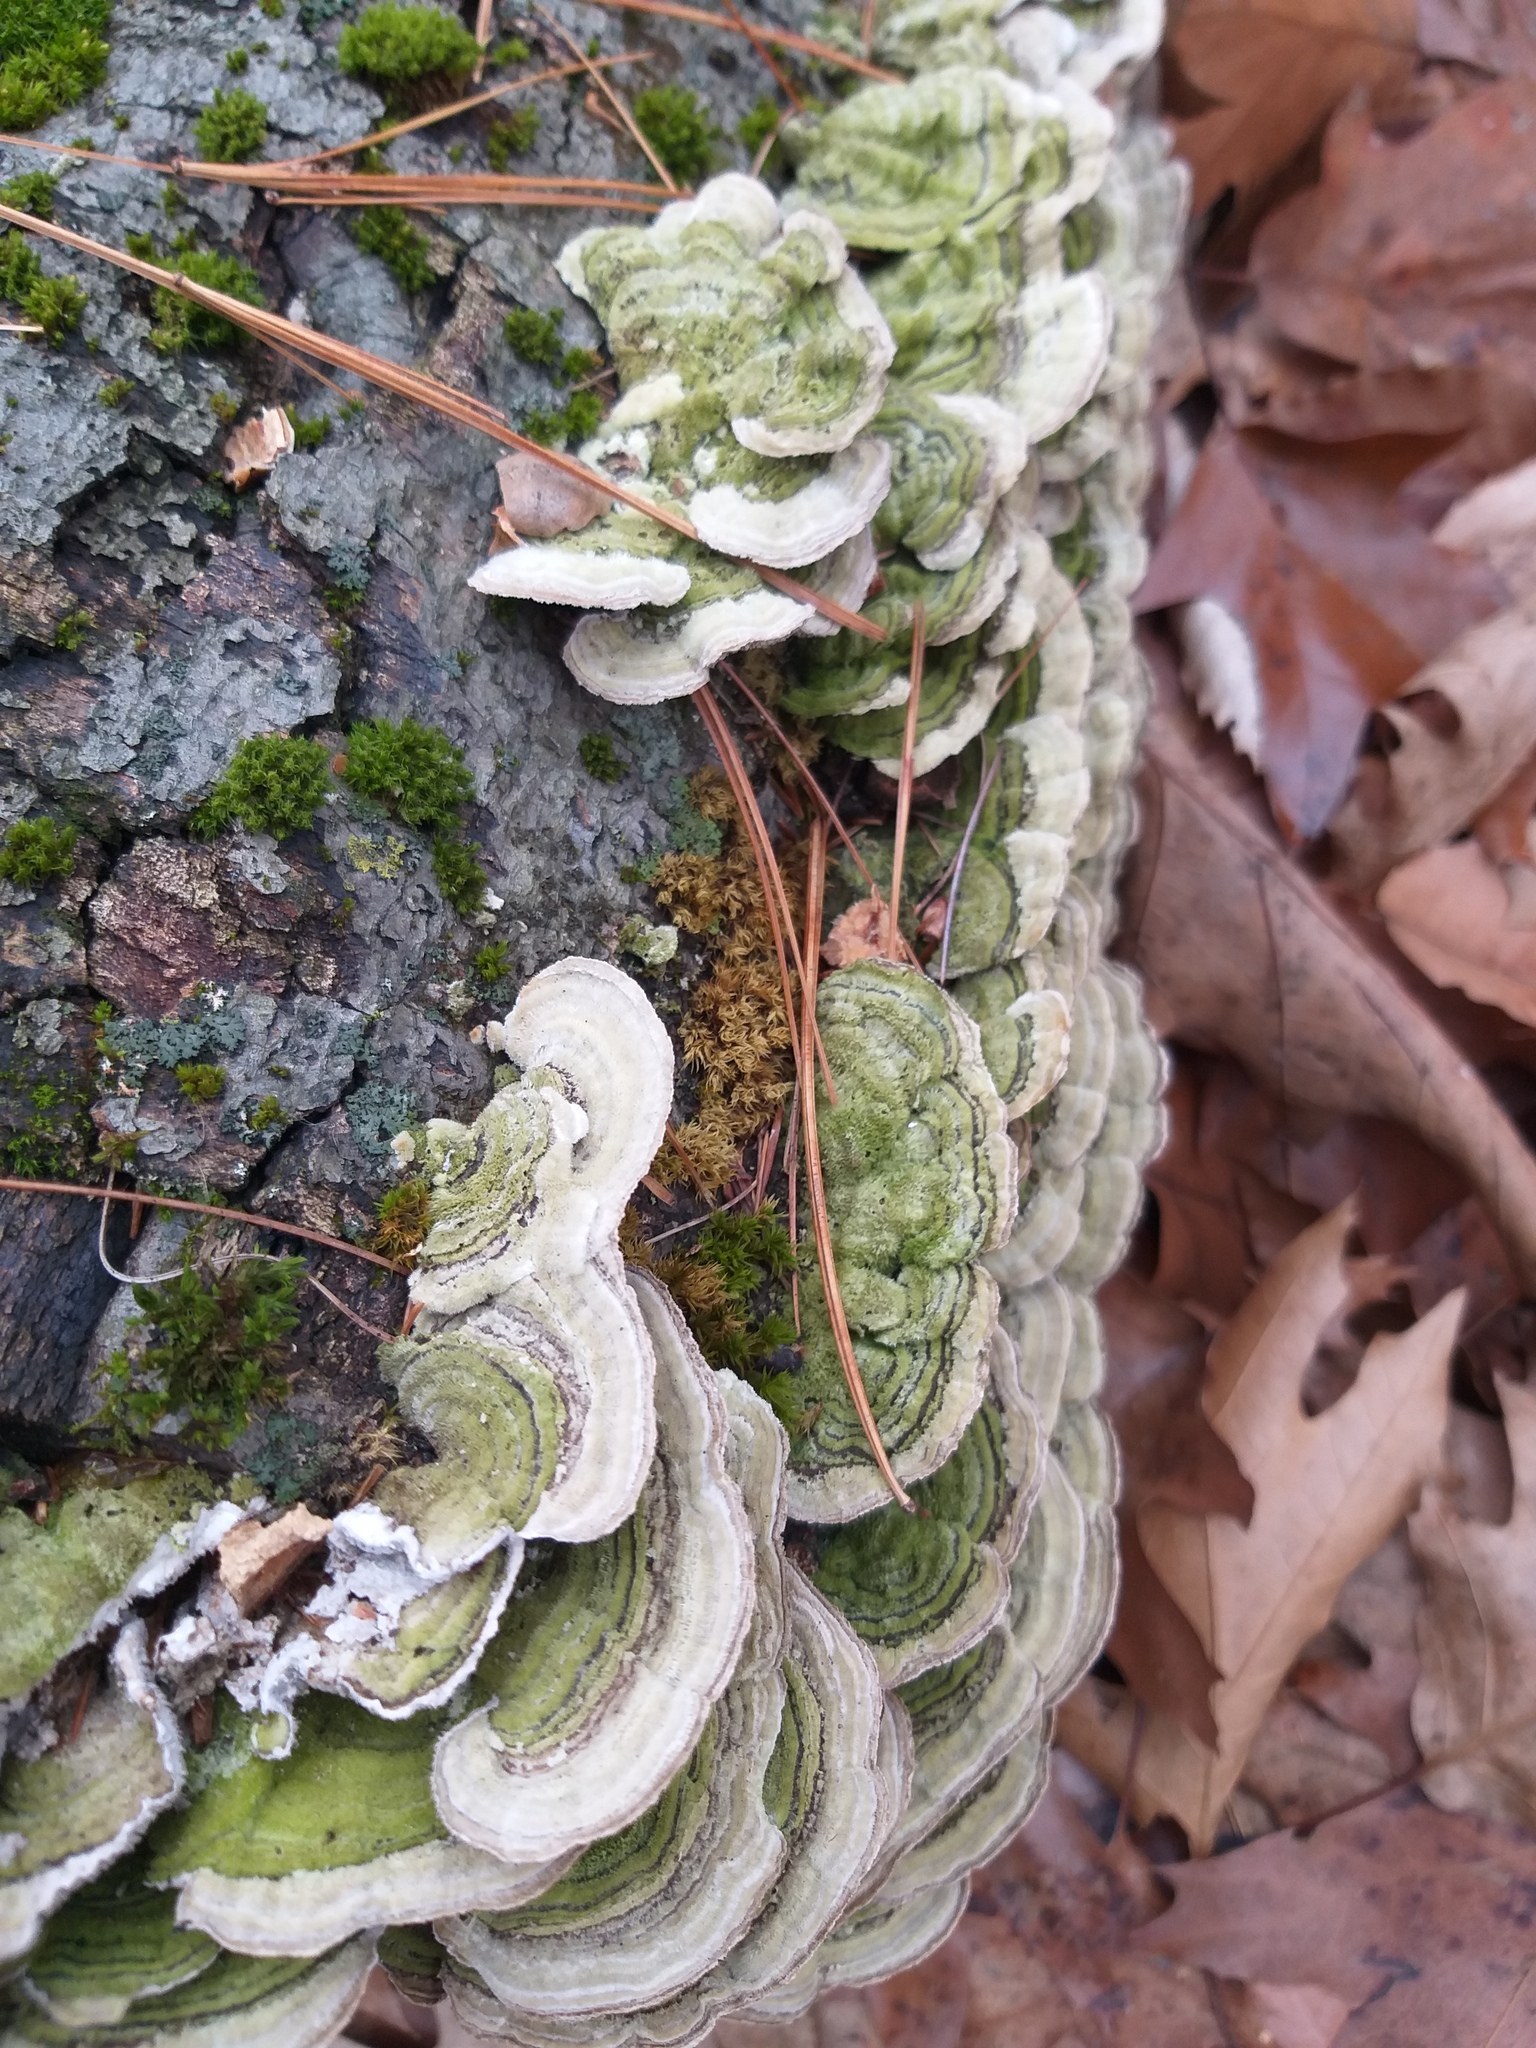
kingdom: Fungi
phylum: Basidiomycota
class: Agaricomycetes
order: Polyporales
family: Cerrenaceae
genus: Cerrena
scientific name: Cerrena unicolor
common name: Mossy maze polypore
